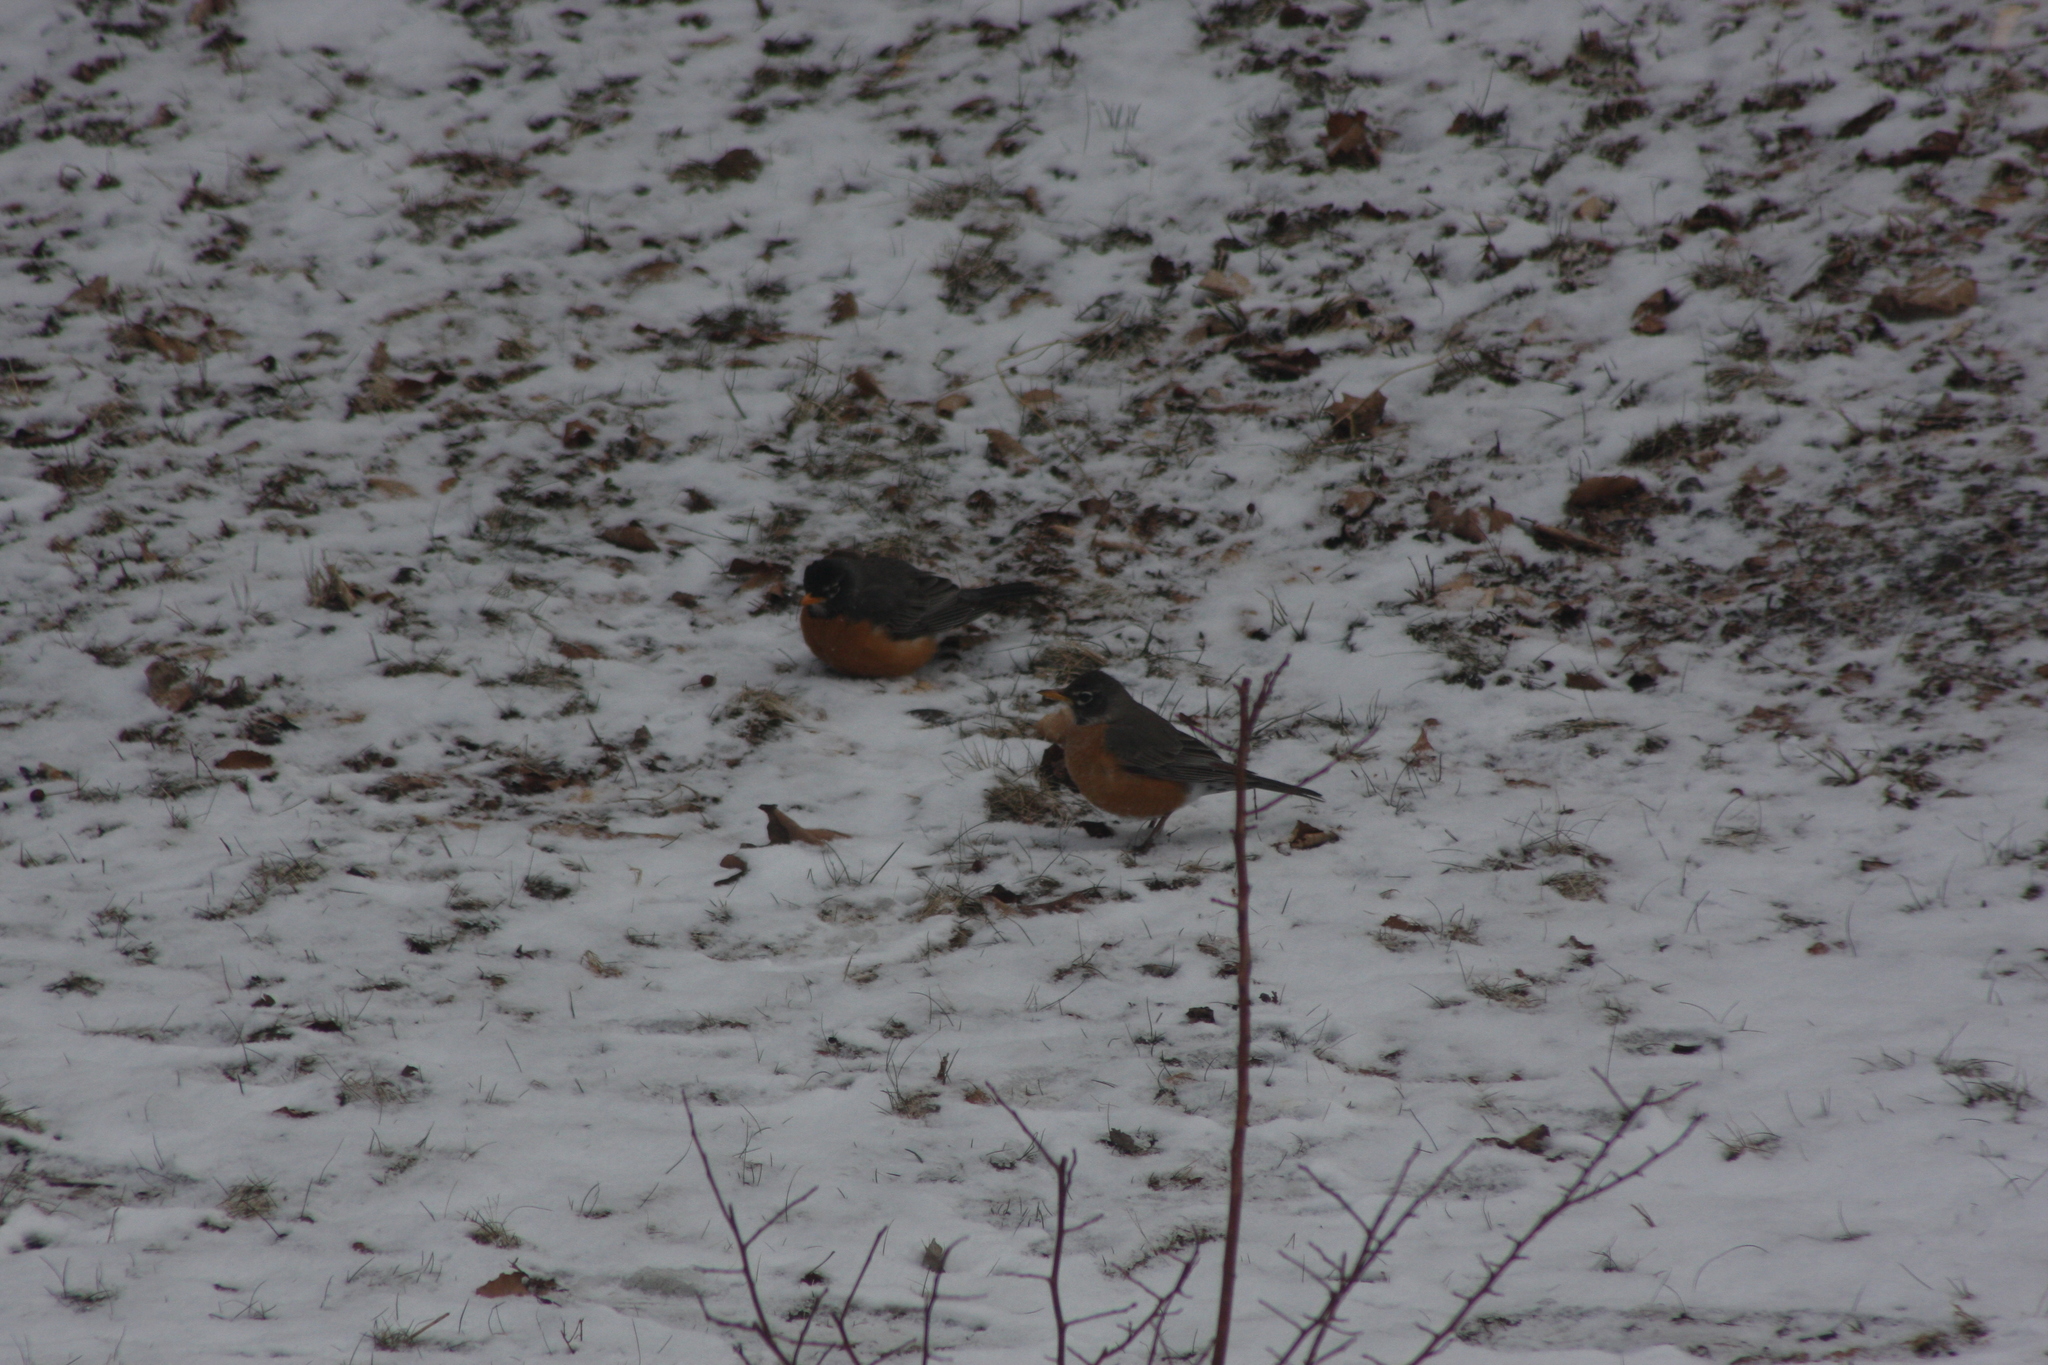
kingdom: Animalia
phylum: Chordata
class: Aves
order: Passeriformes
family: Turdidae
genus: Turdus
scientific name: Turdus migratorius
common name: American robin
